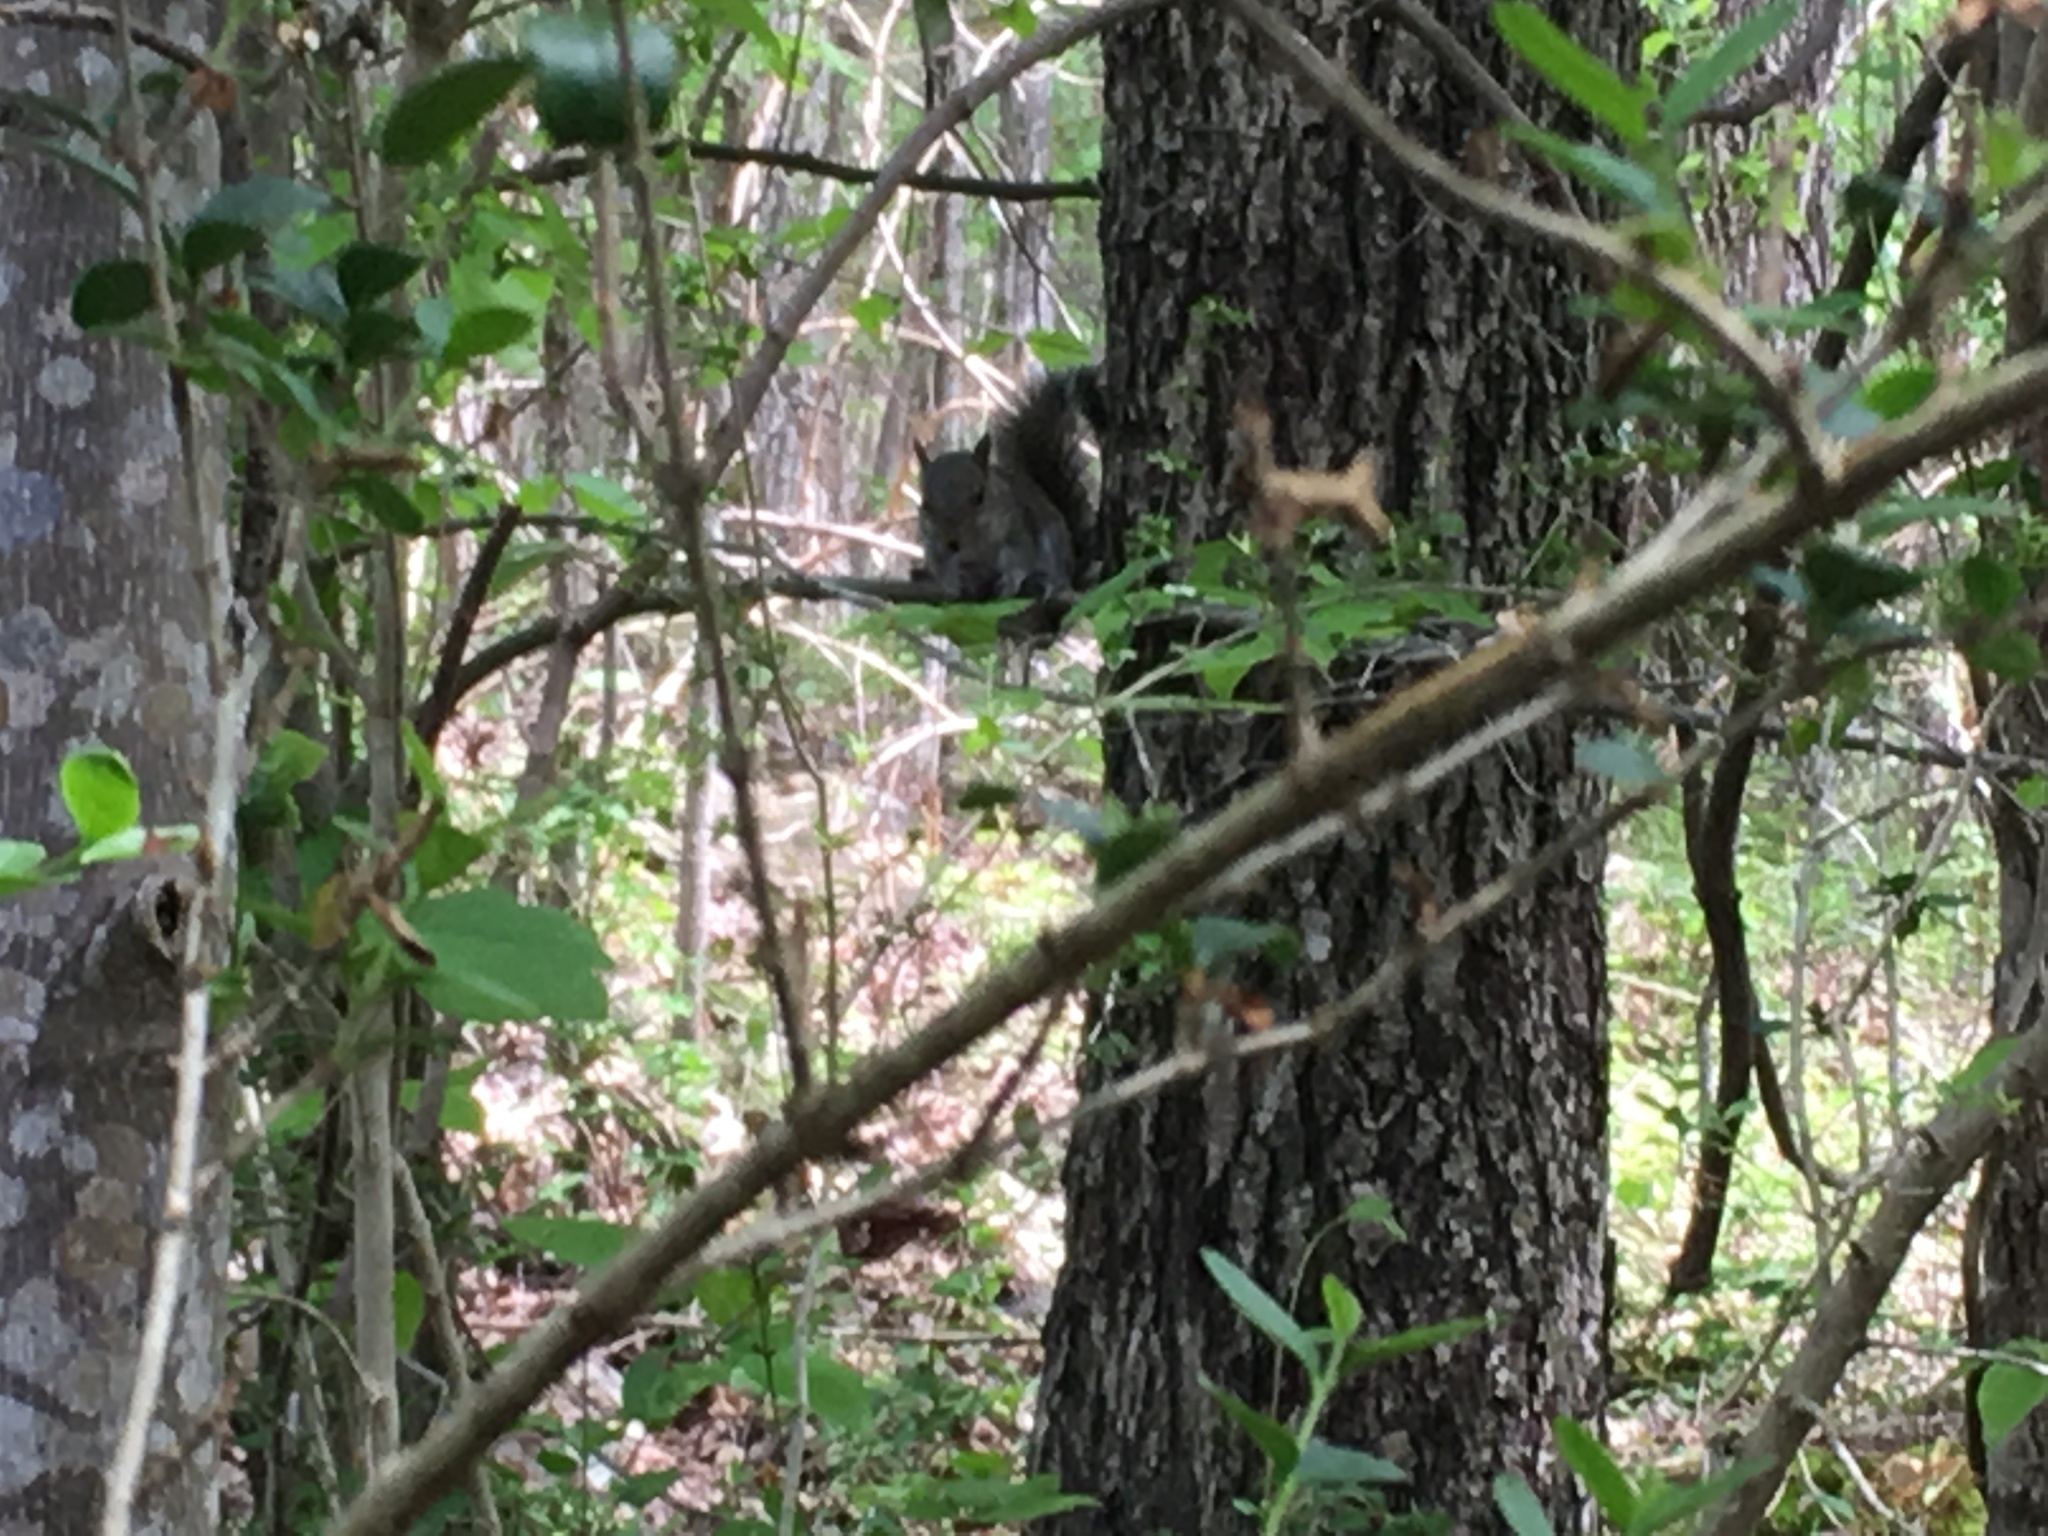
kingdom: Animalia
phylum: Chordata
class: Mammalia
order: Rodentia
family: Sciuridae
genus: Sciurus
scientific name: Sciurus carolinensis
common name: Eastern gray squirrel
